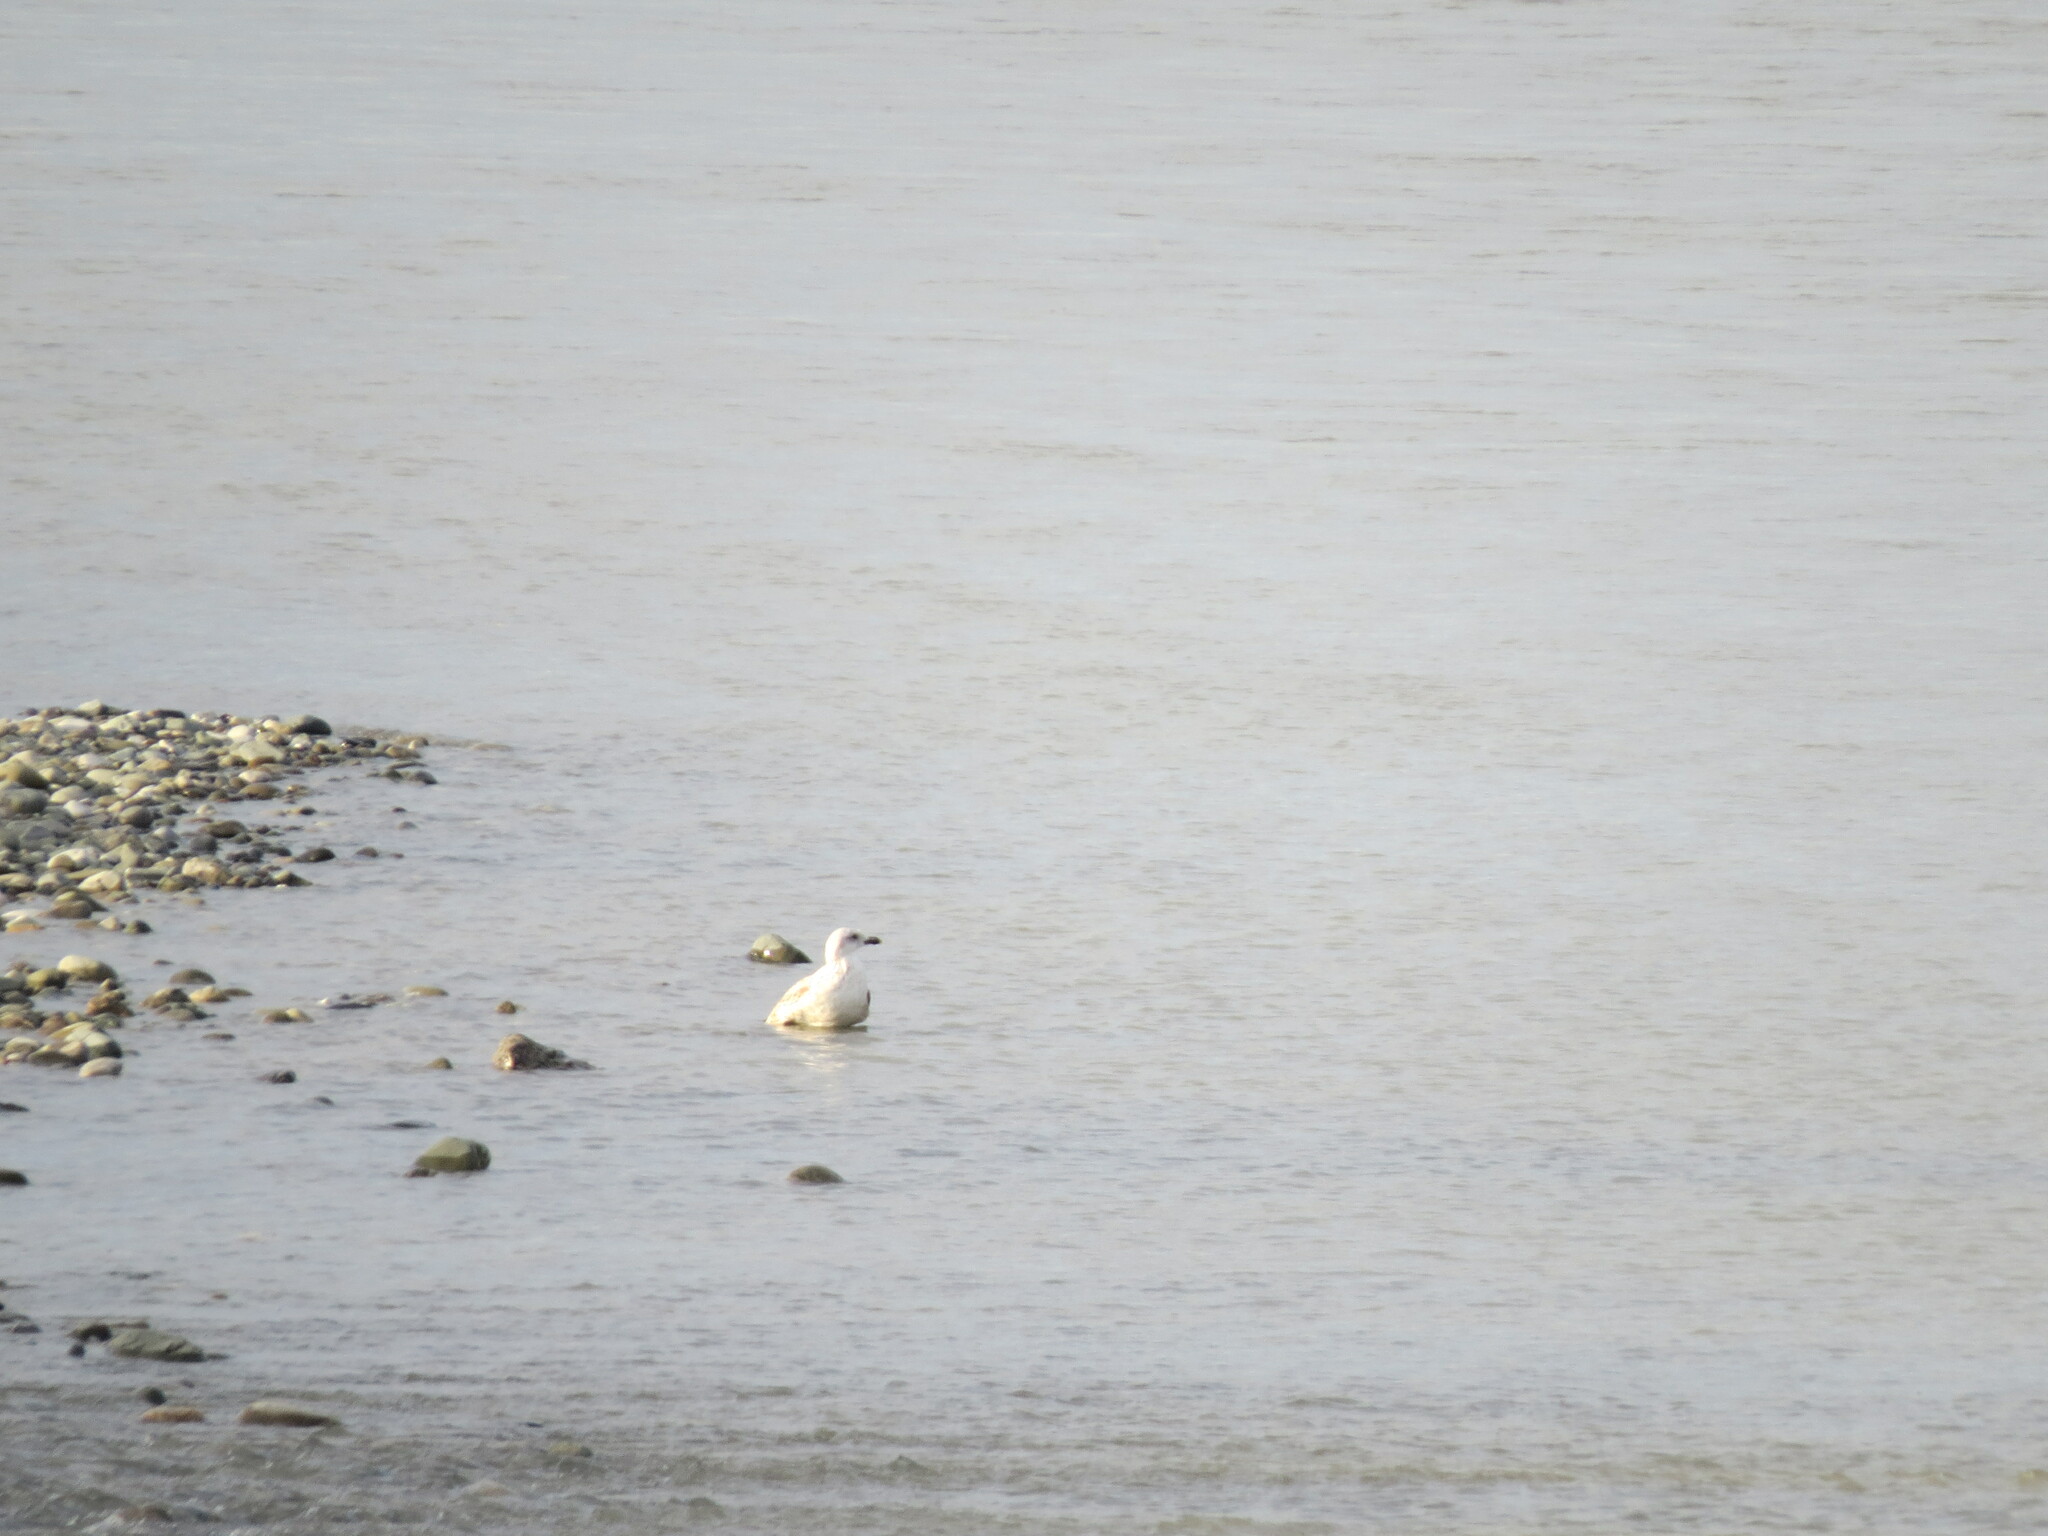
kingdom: Animalia
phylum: Chordata
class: Aves
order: Charadriiformes
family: Laridae
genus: Larus
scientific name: Larus michahellis
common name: Yellow-legged gull
